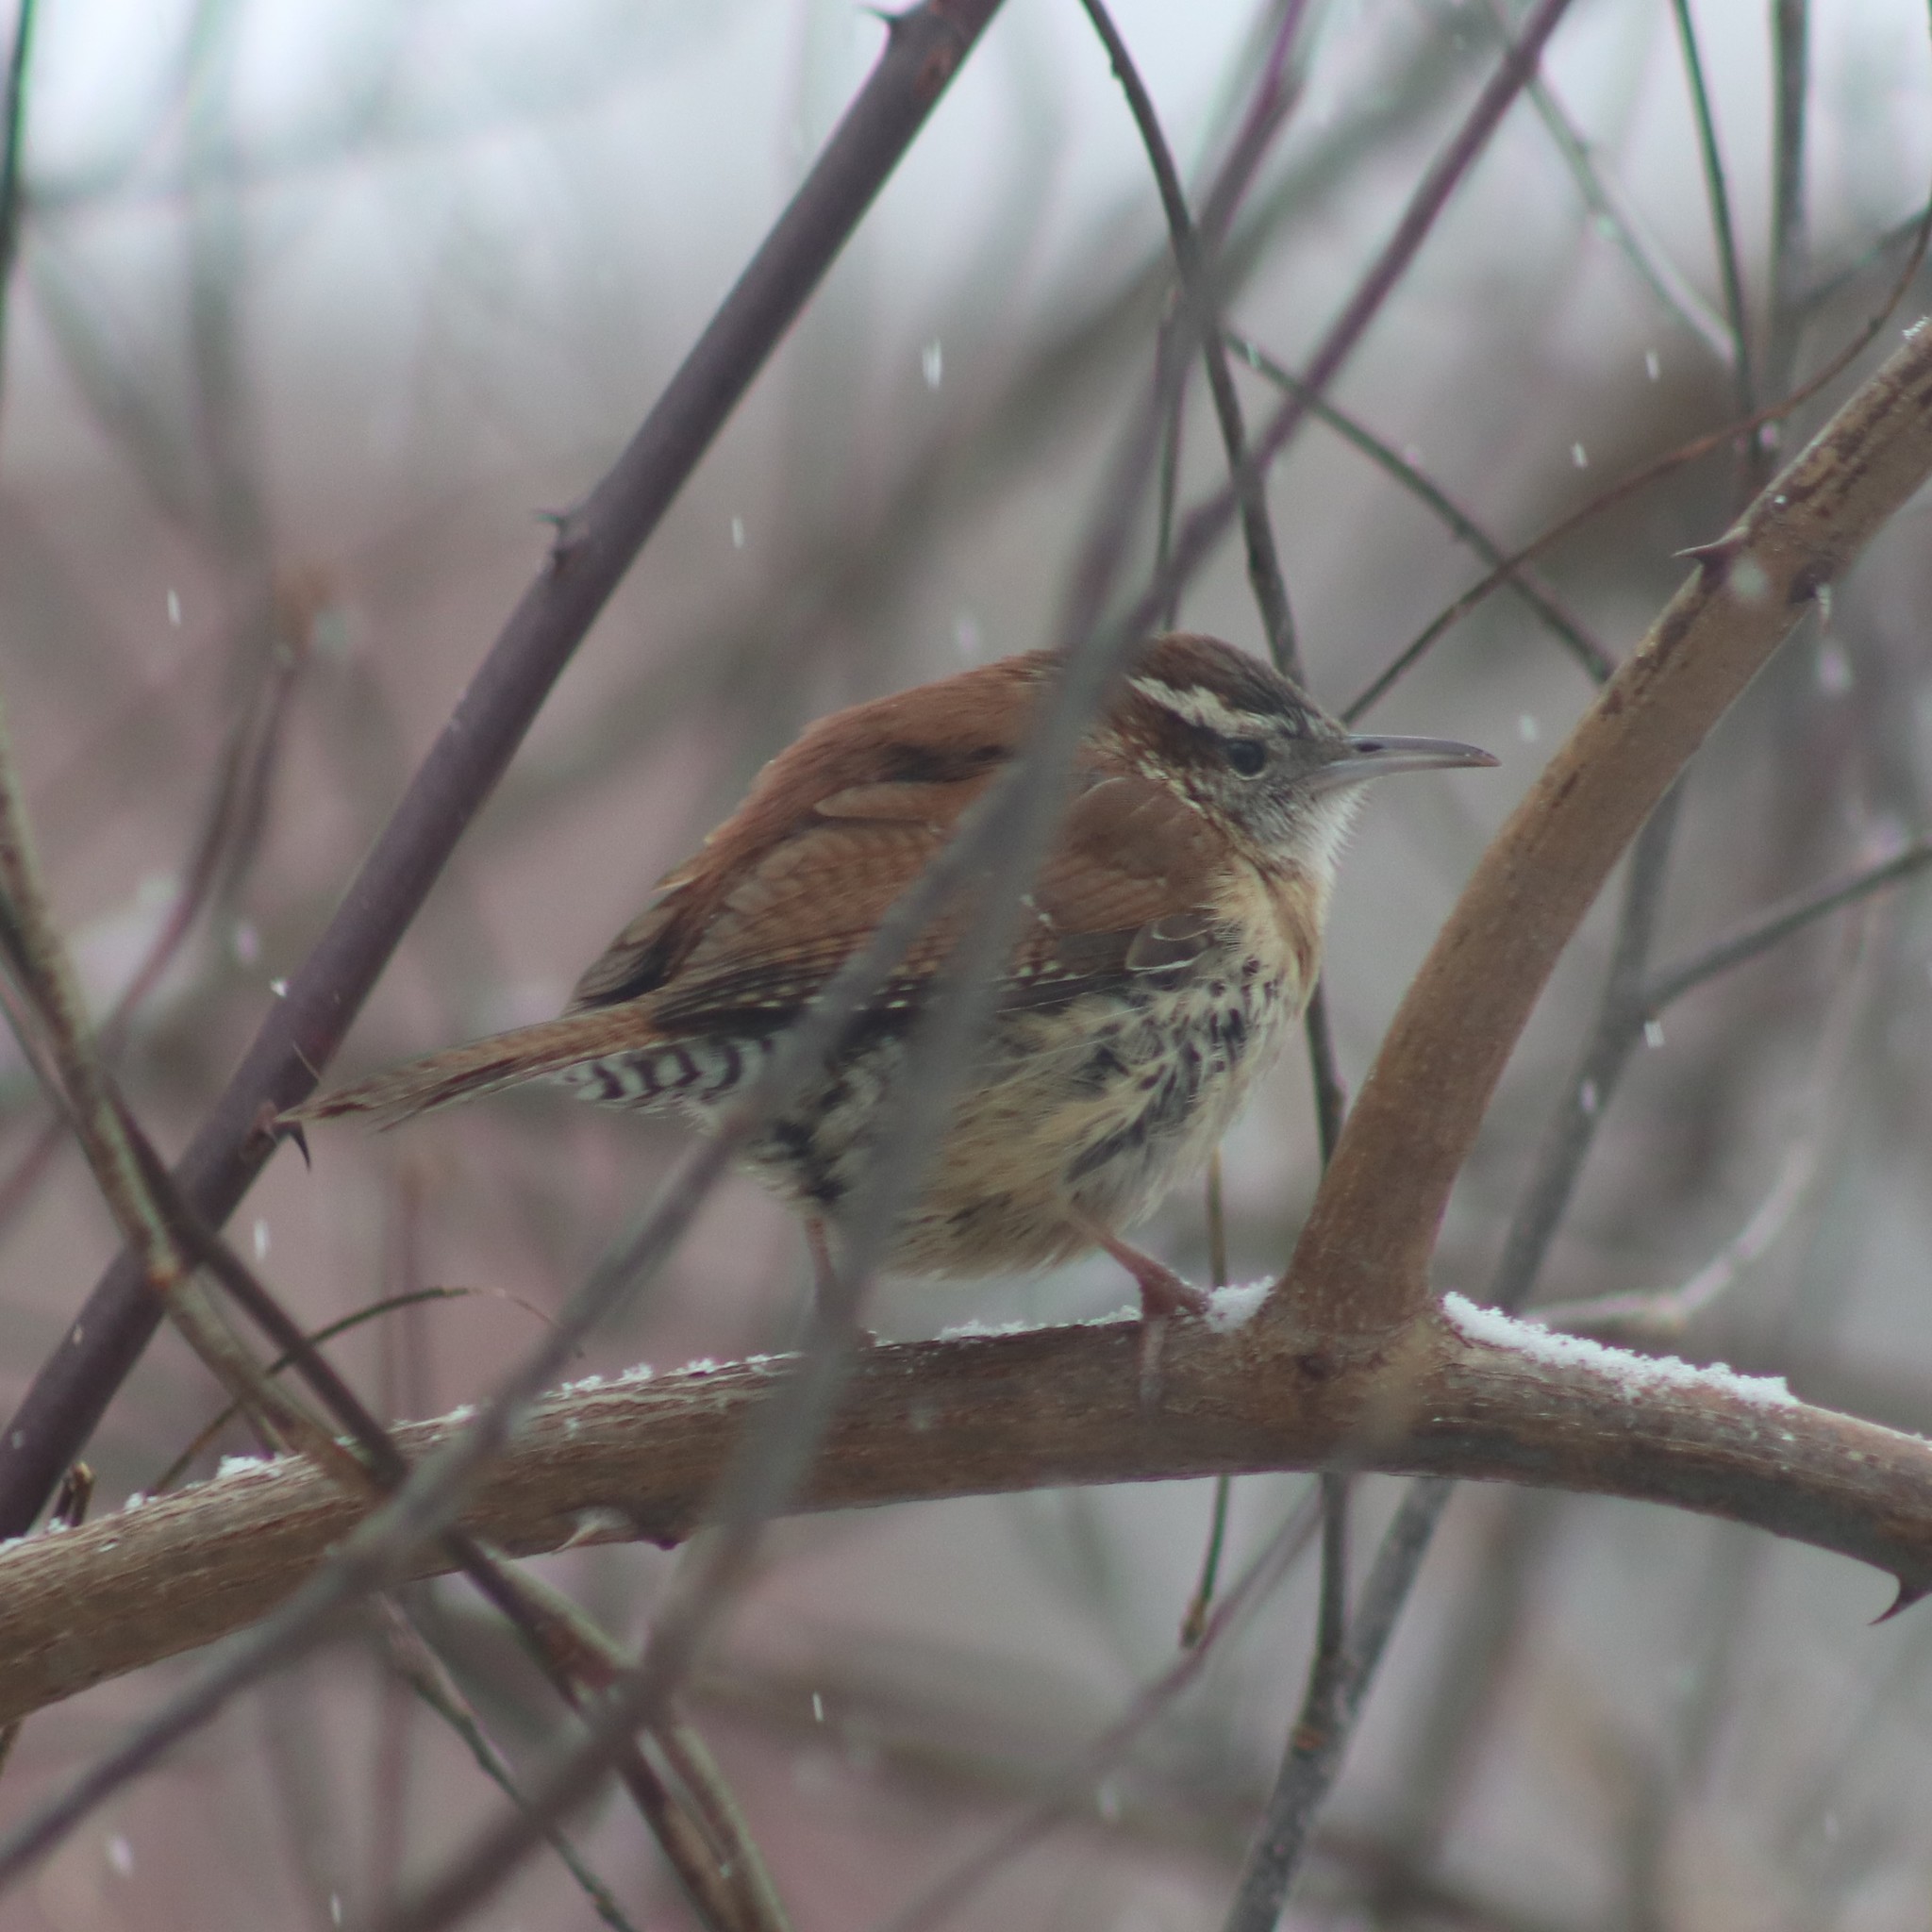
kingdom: Animalia
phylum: Chordata
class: Aves
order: Passeriformes
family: Troglodytidae
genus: Thryothorus
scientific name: Thryothorus ludovicianus
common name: Carolina wren
